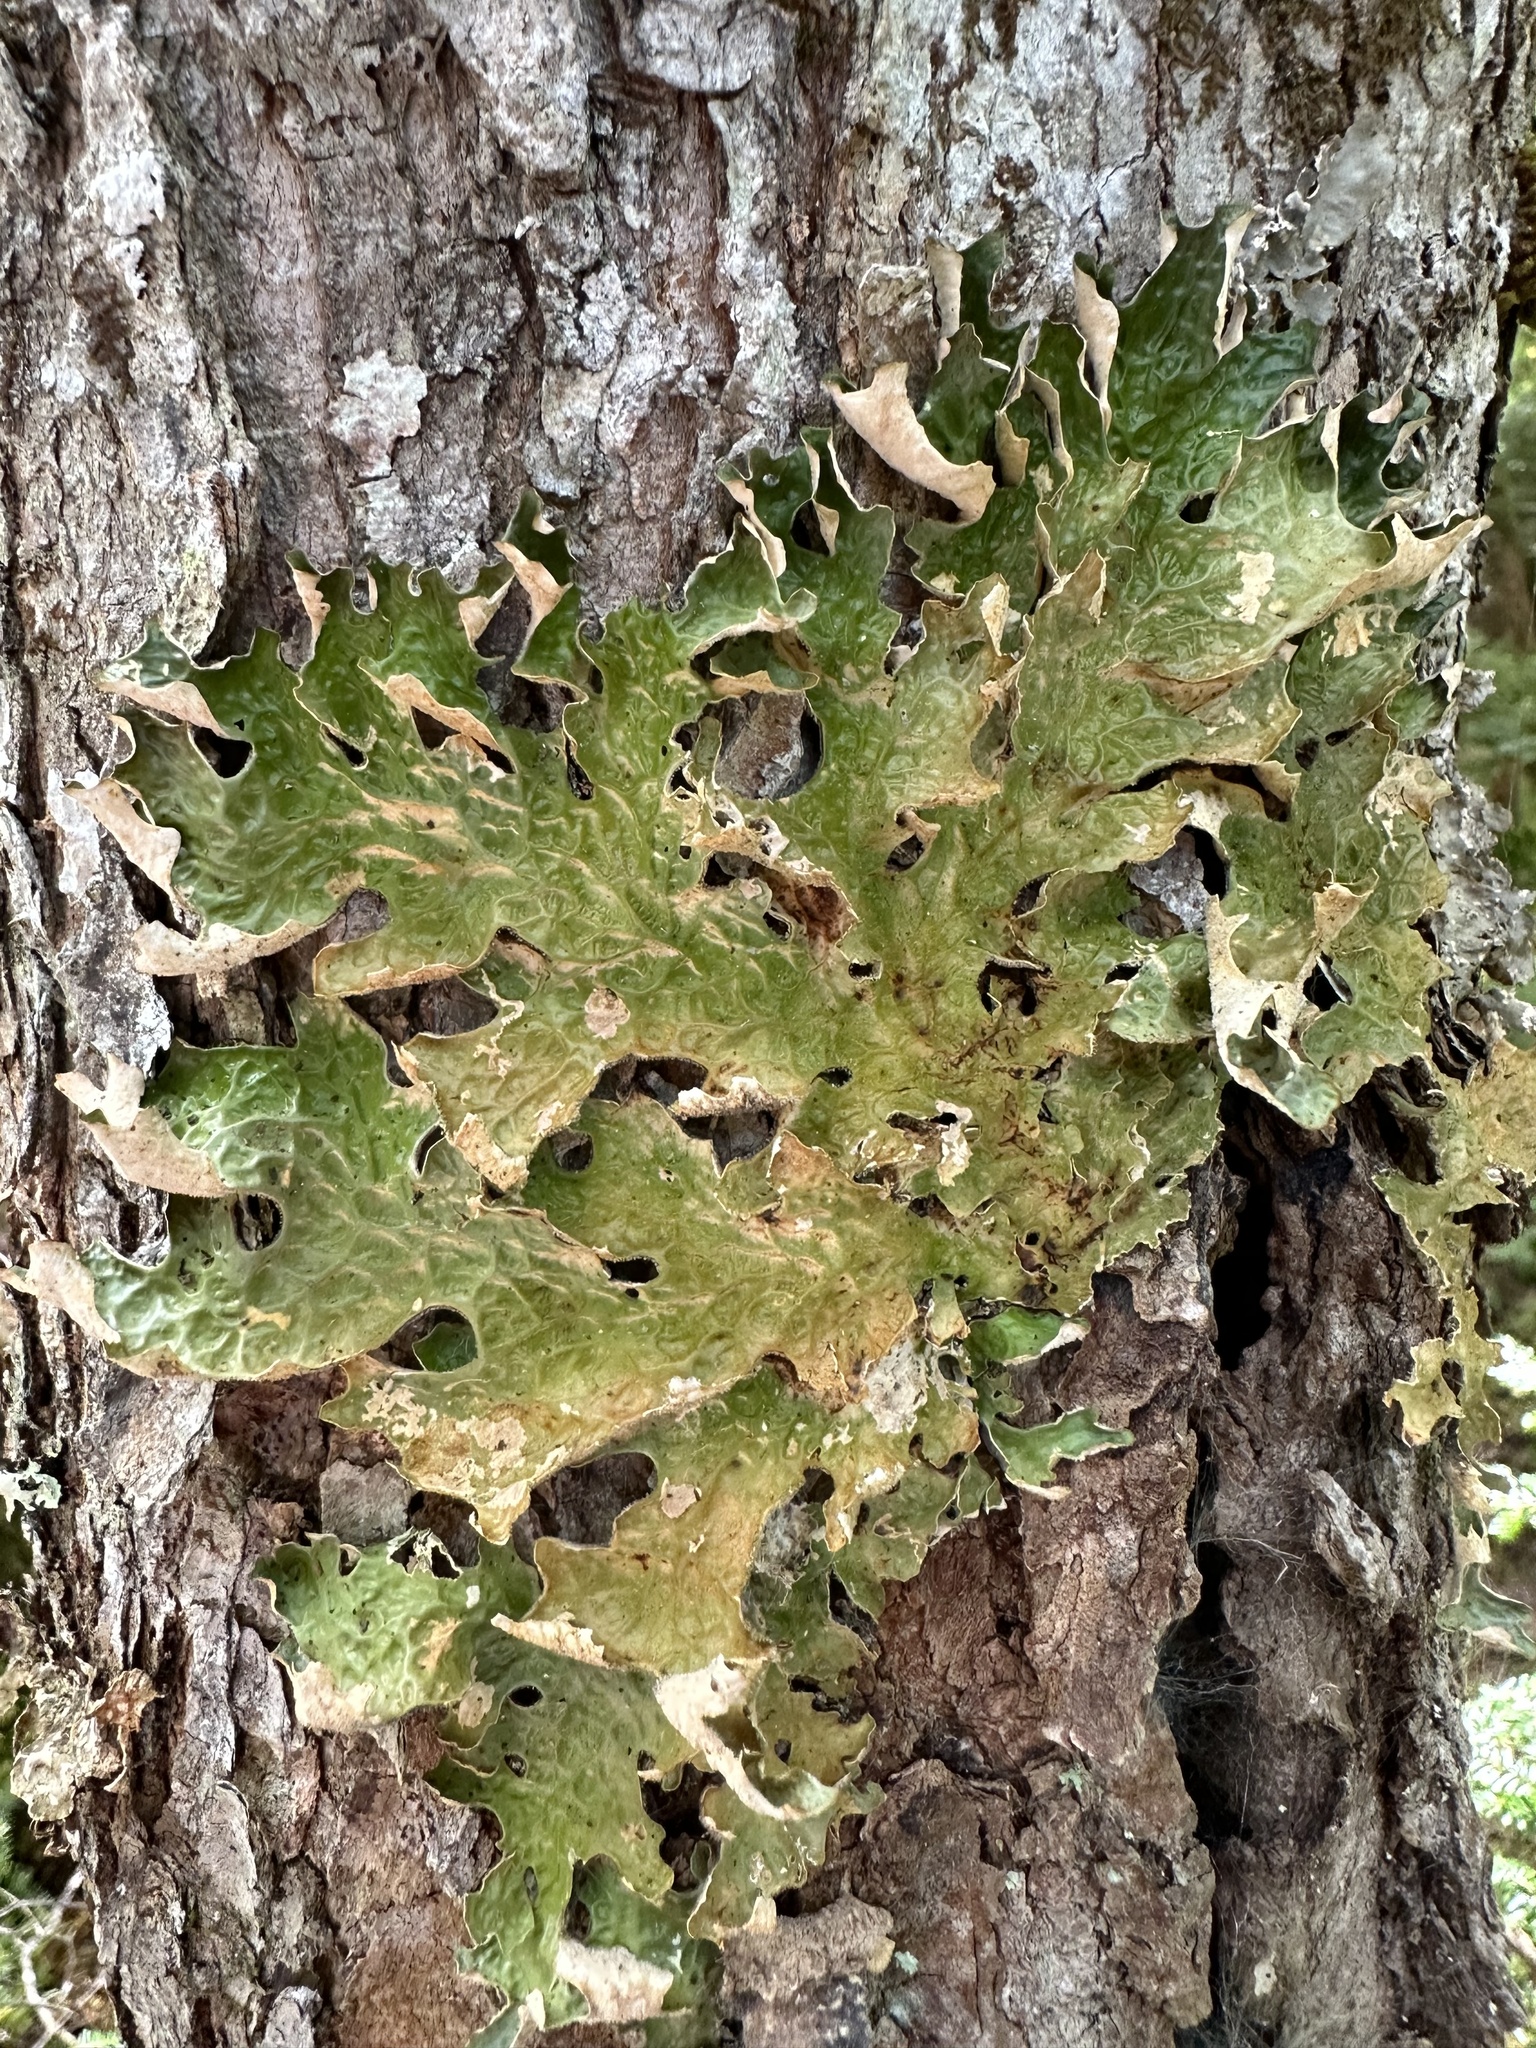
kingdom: Fungi
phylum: Ascomycota
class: Lecanoromycetes
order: Peltigerales
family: Lobariaceae
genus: Lobaria
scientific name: Lobaria pulmonaria
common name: Lungwort
